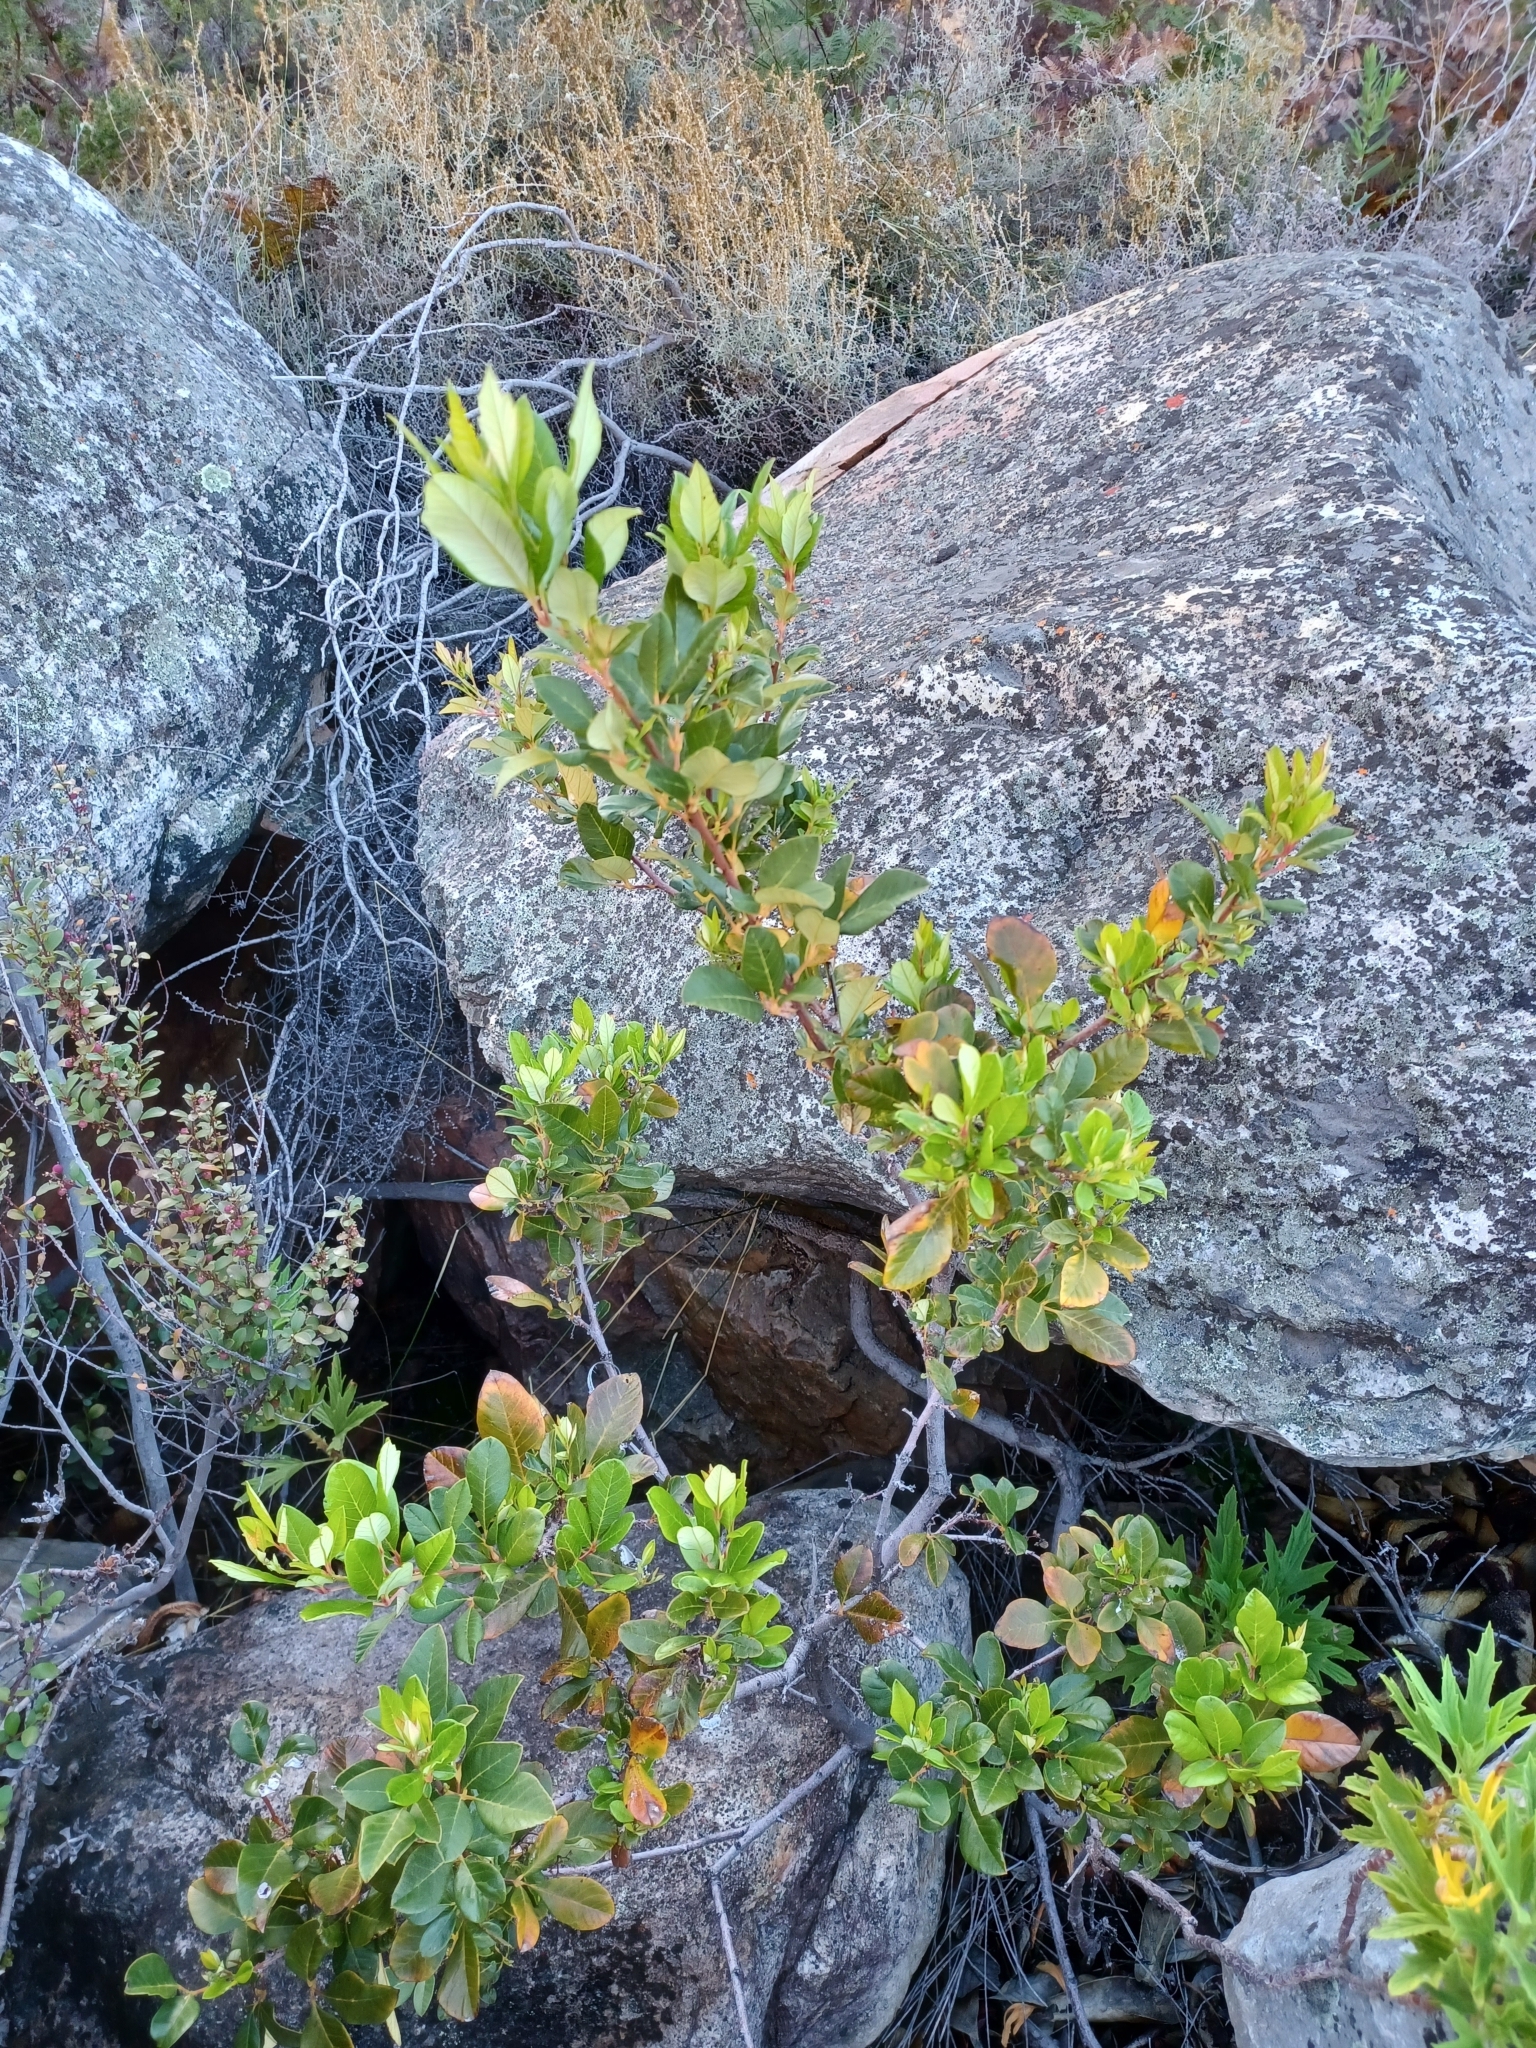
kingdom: Plantae
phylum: Tracheophyta
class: Magnoliopsida
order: Sapindales
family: Anacardiaceae
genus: Searsia
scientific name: Searsia tomentosa
